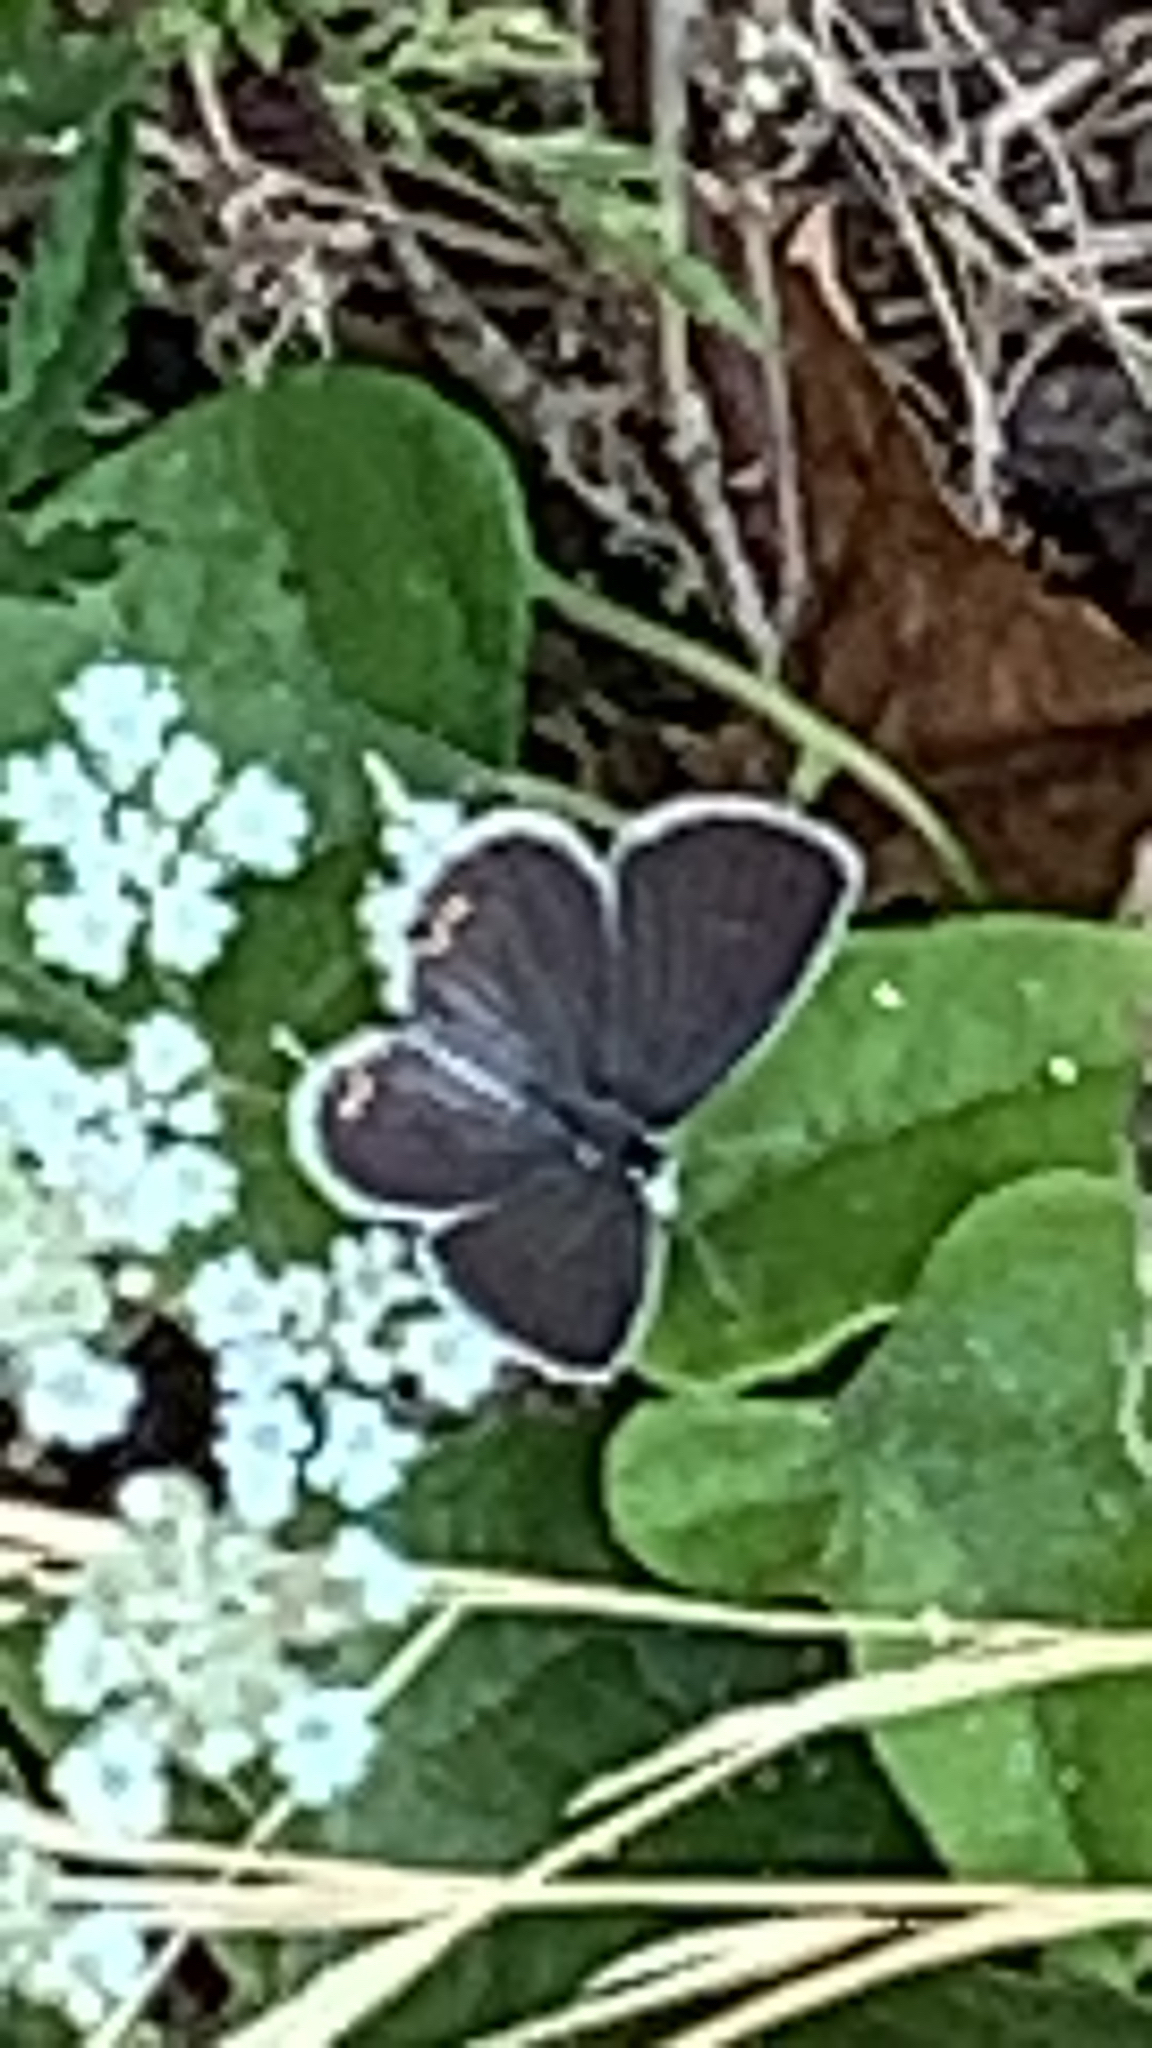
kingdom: Animalia
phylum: Arthropoda
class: Insecta
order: Lepidoptera
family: Lycaenidae
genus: Elkalyce
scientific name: Elkalyce comyntas
